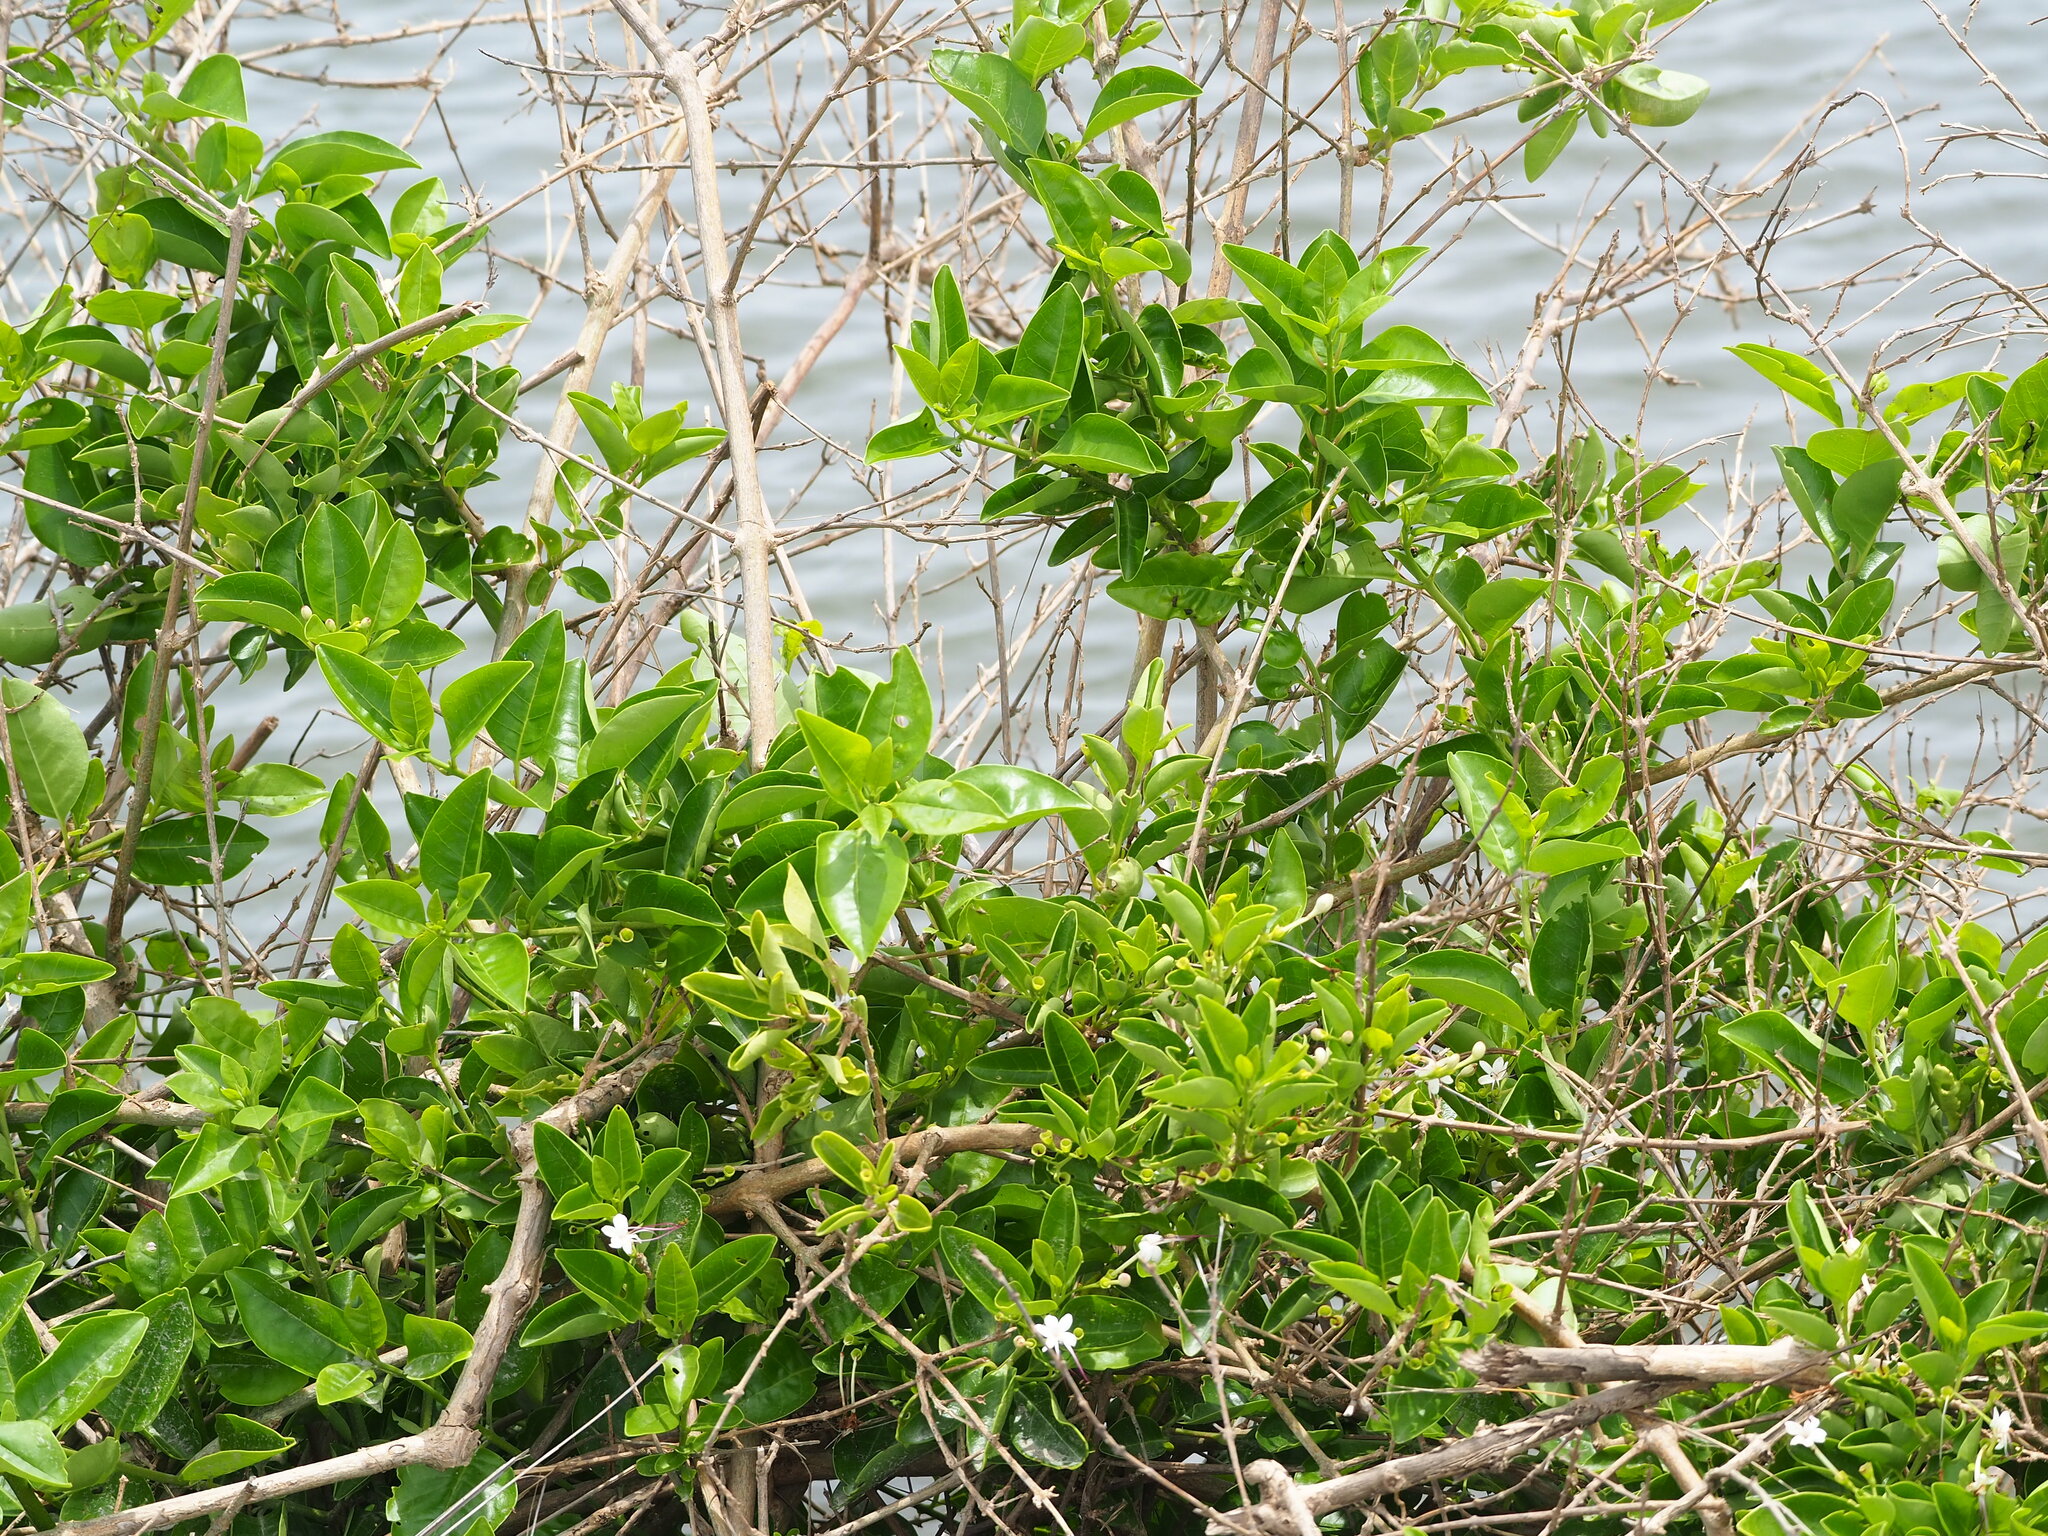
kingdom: Plantae
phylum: Tracheophyta
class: Magnoliopsida
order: Lamiales
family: Lamiaceae
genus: Volkameria
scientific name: Volkameria inermis
